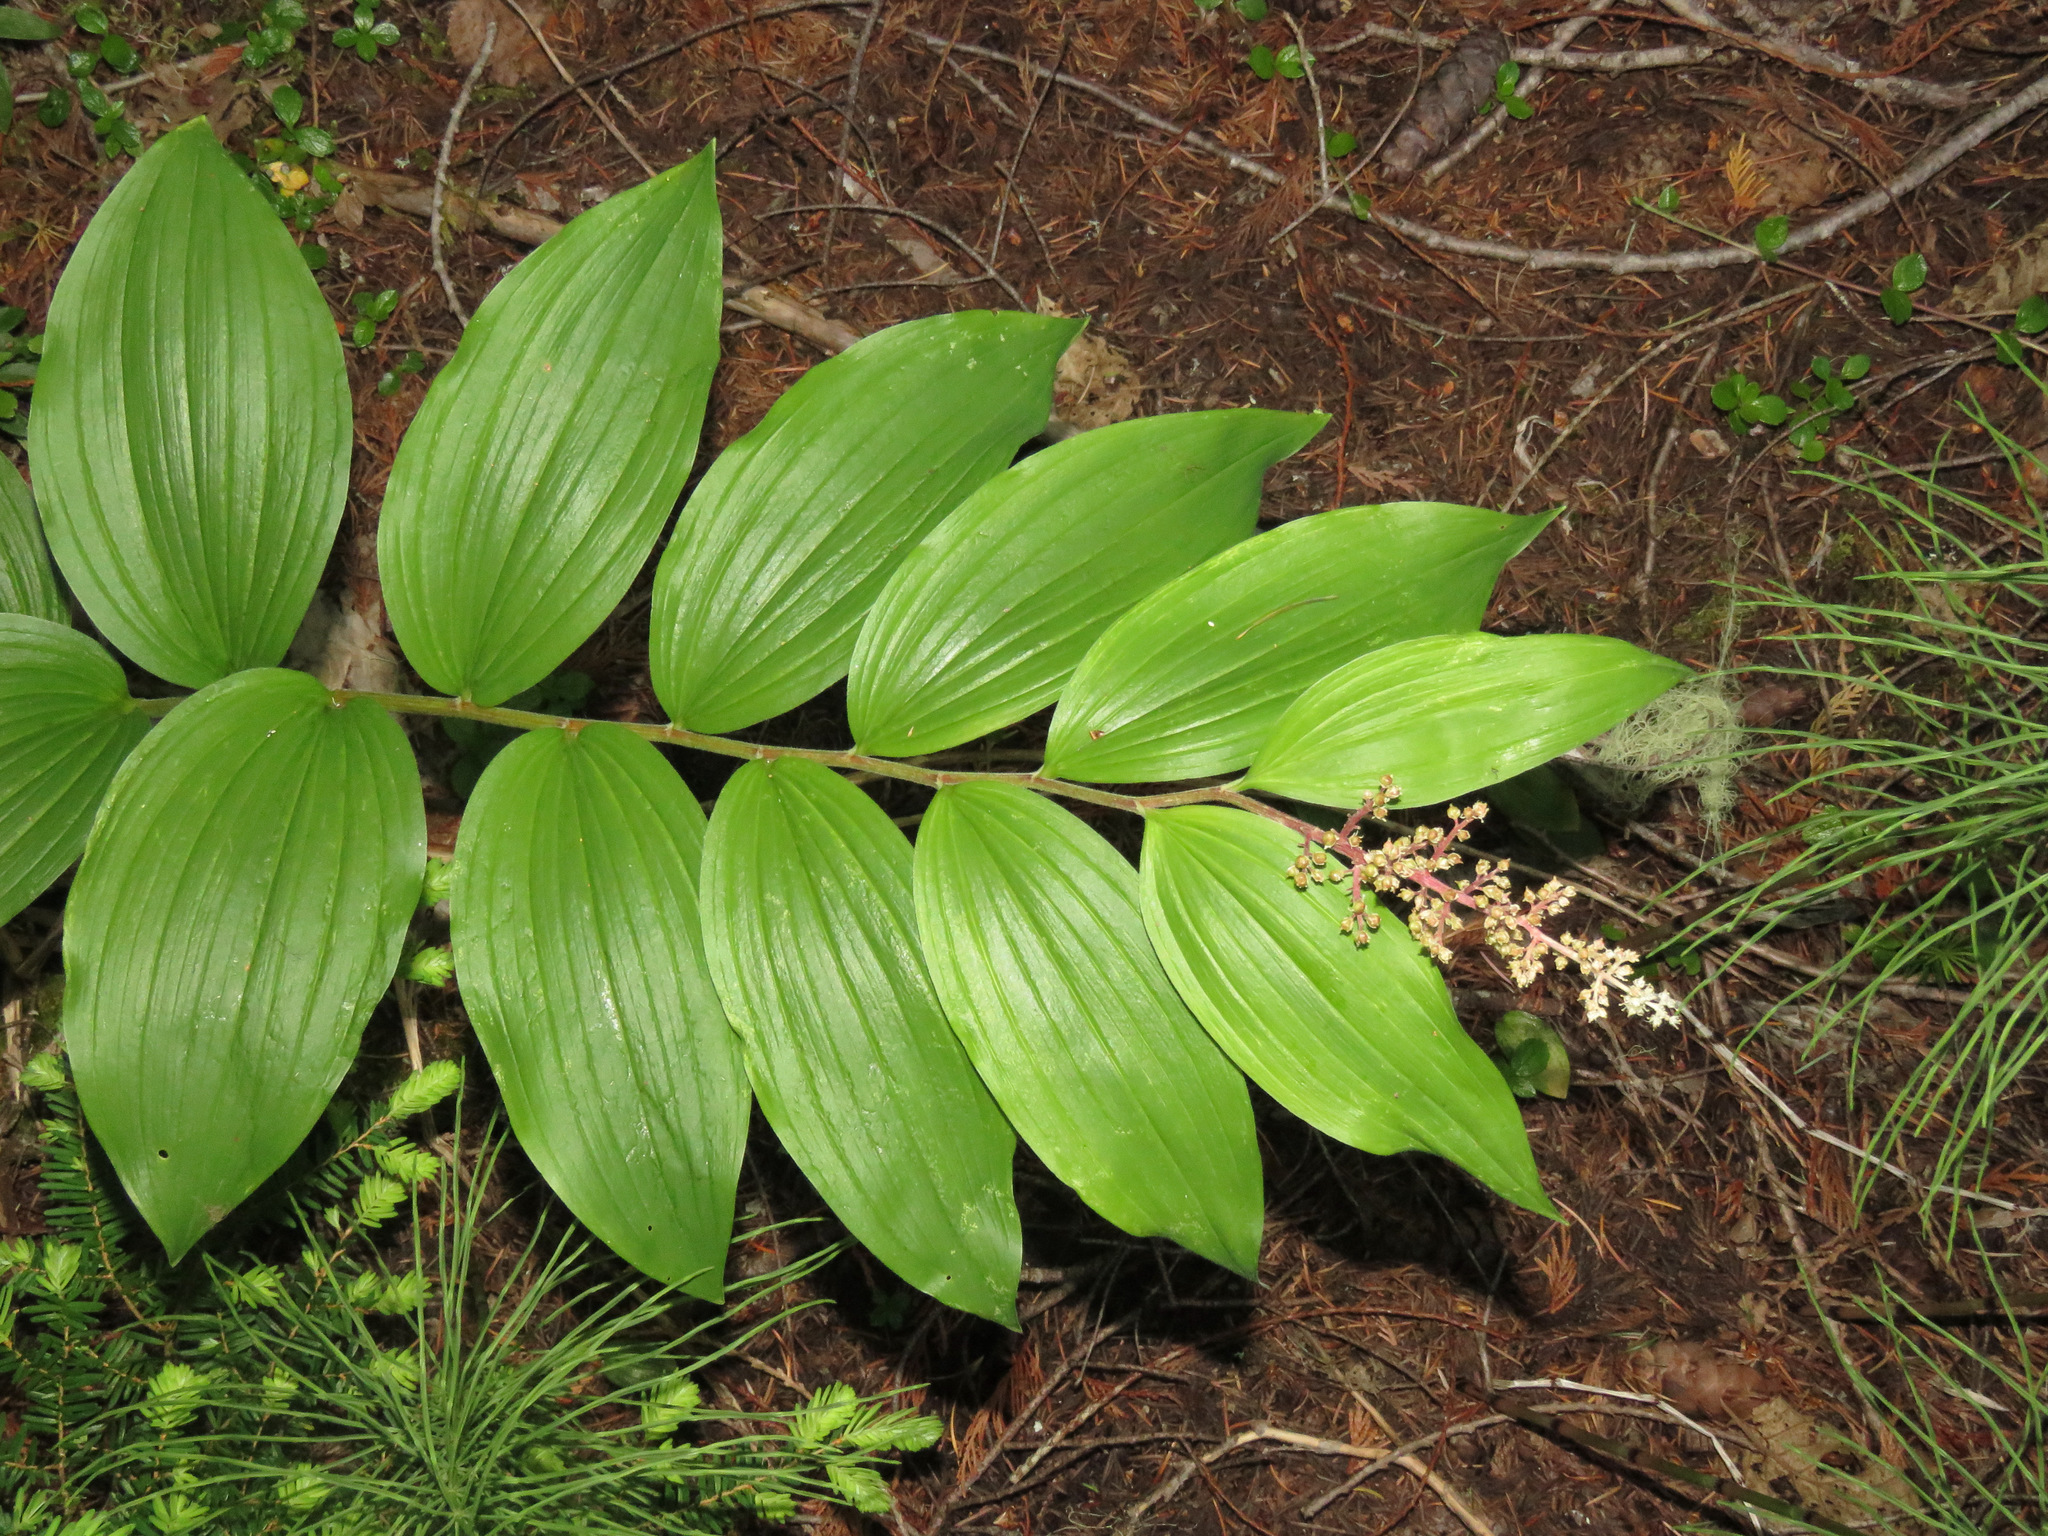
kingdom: Plantae
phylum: Tracheophyta
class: Liliopsida
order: Asparagales
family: Asparagaceae
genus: Maianthemum
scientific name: Maianthemum racemosum
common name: False spikenard
